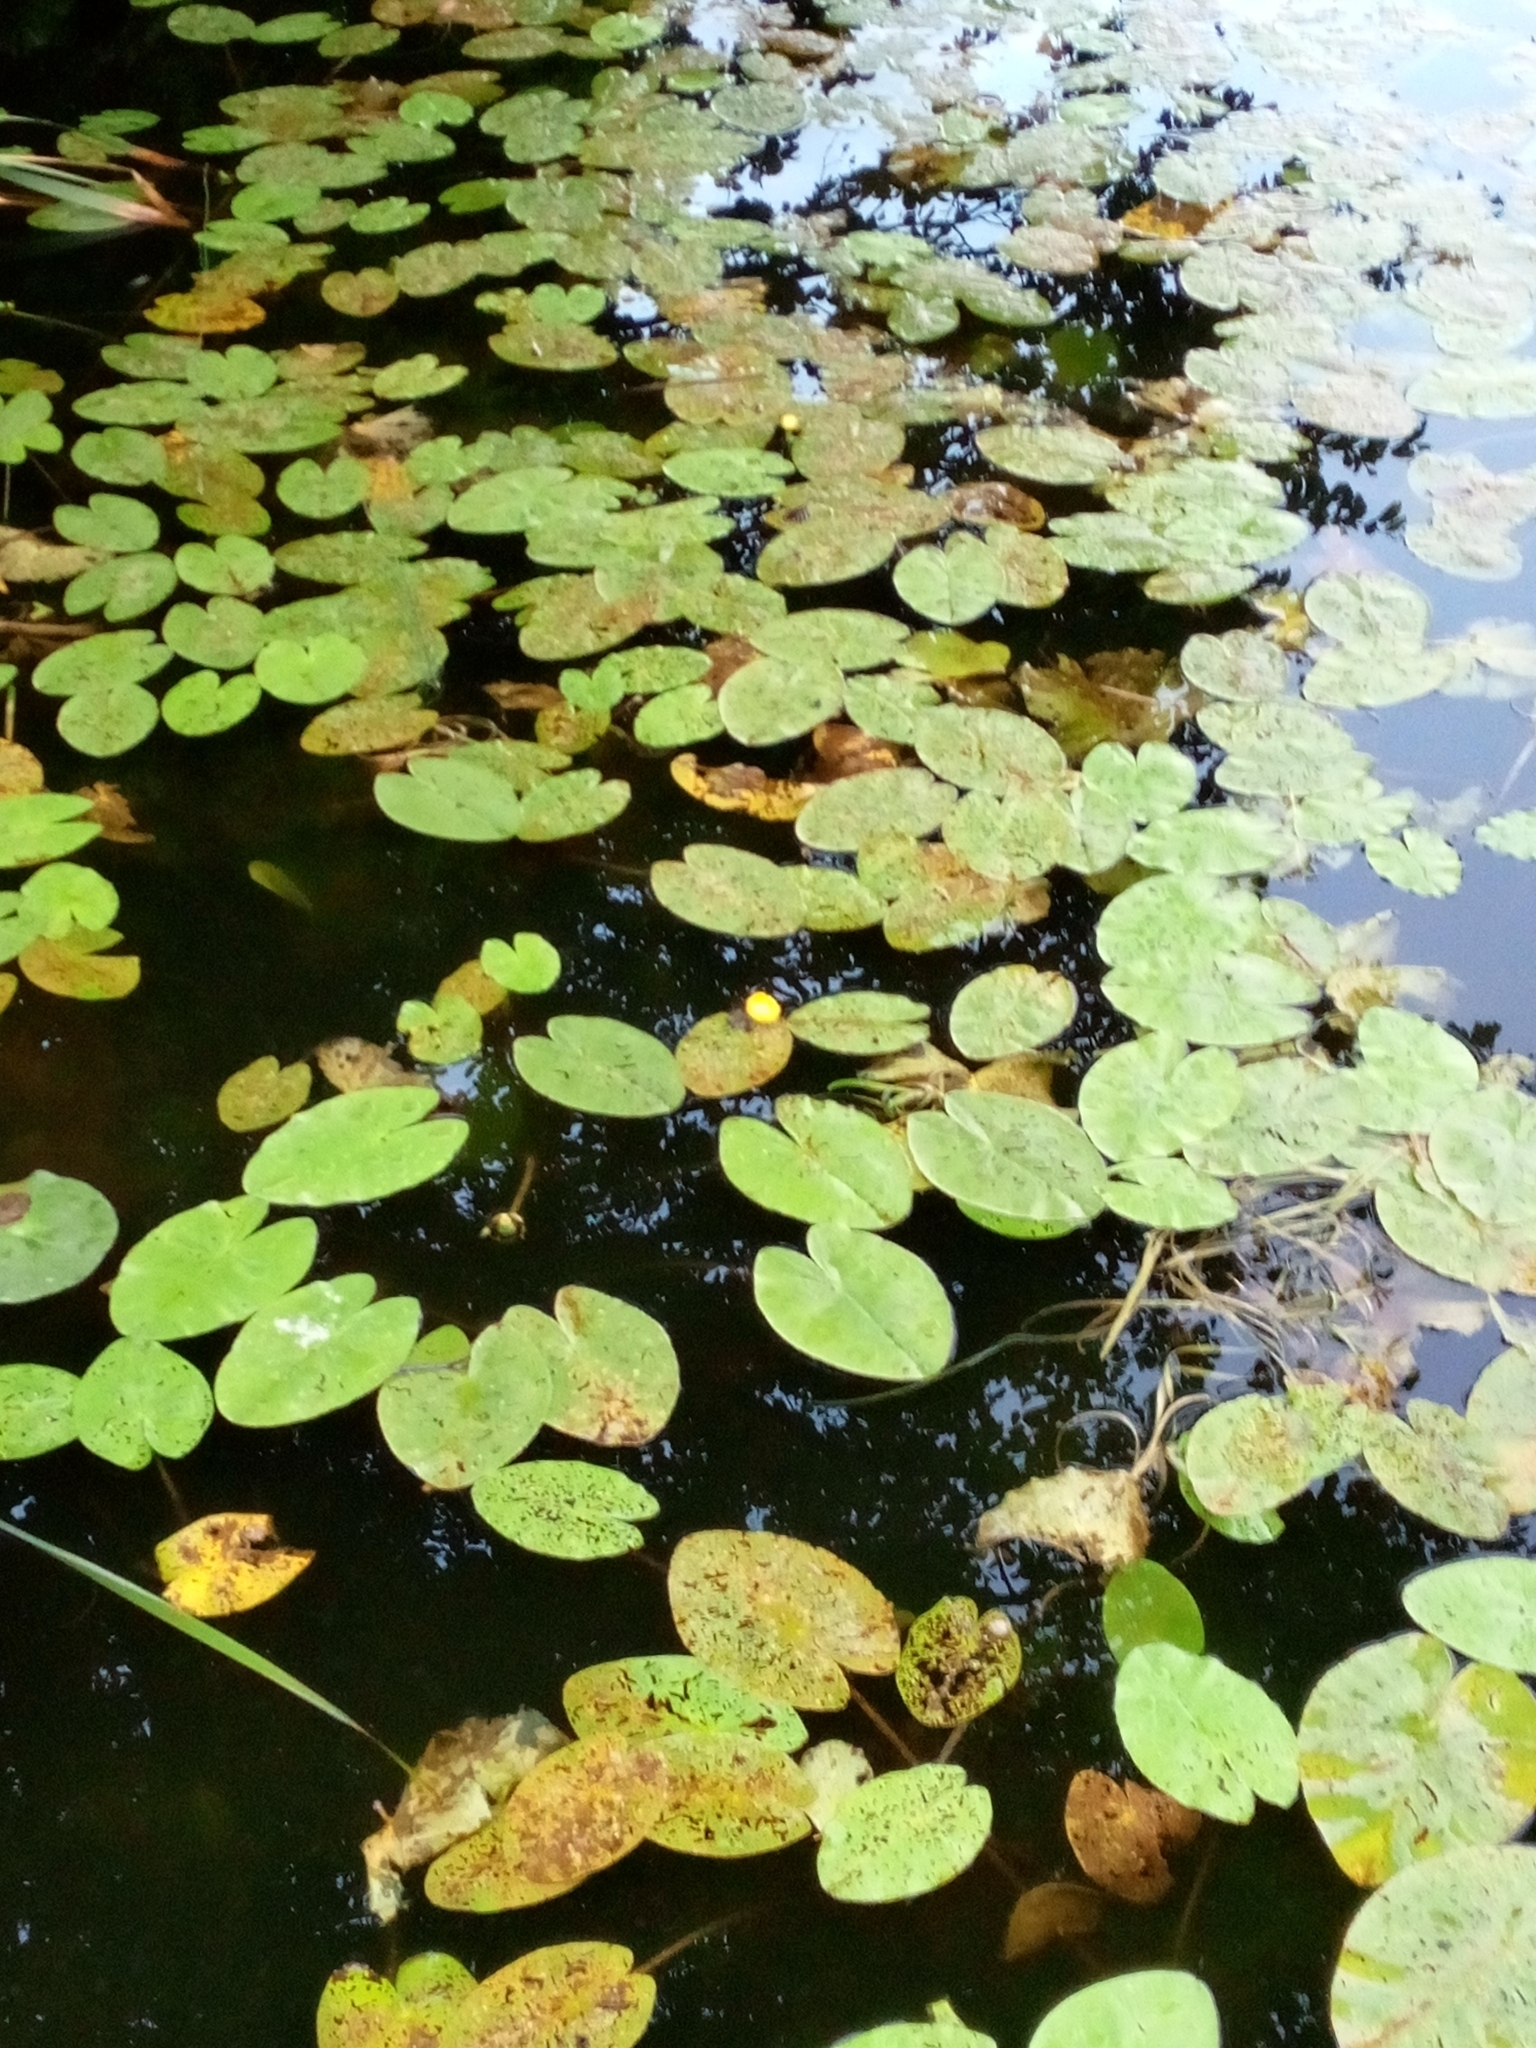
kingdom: Plantae
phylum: Tracheophyta
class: Magnoliopsida
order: Nymphaeales
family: Nymphaeaceae
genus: Nuphar
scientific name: Nuphar lutea
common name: Yellow water-lily
